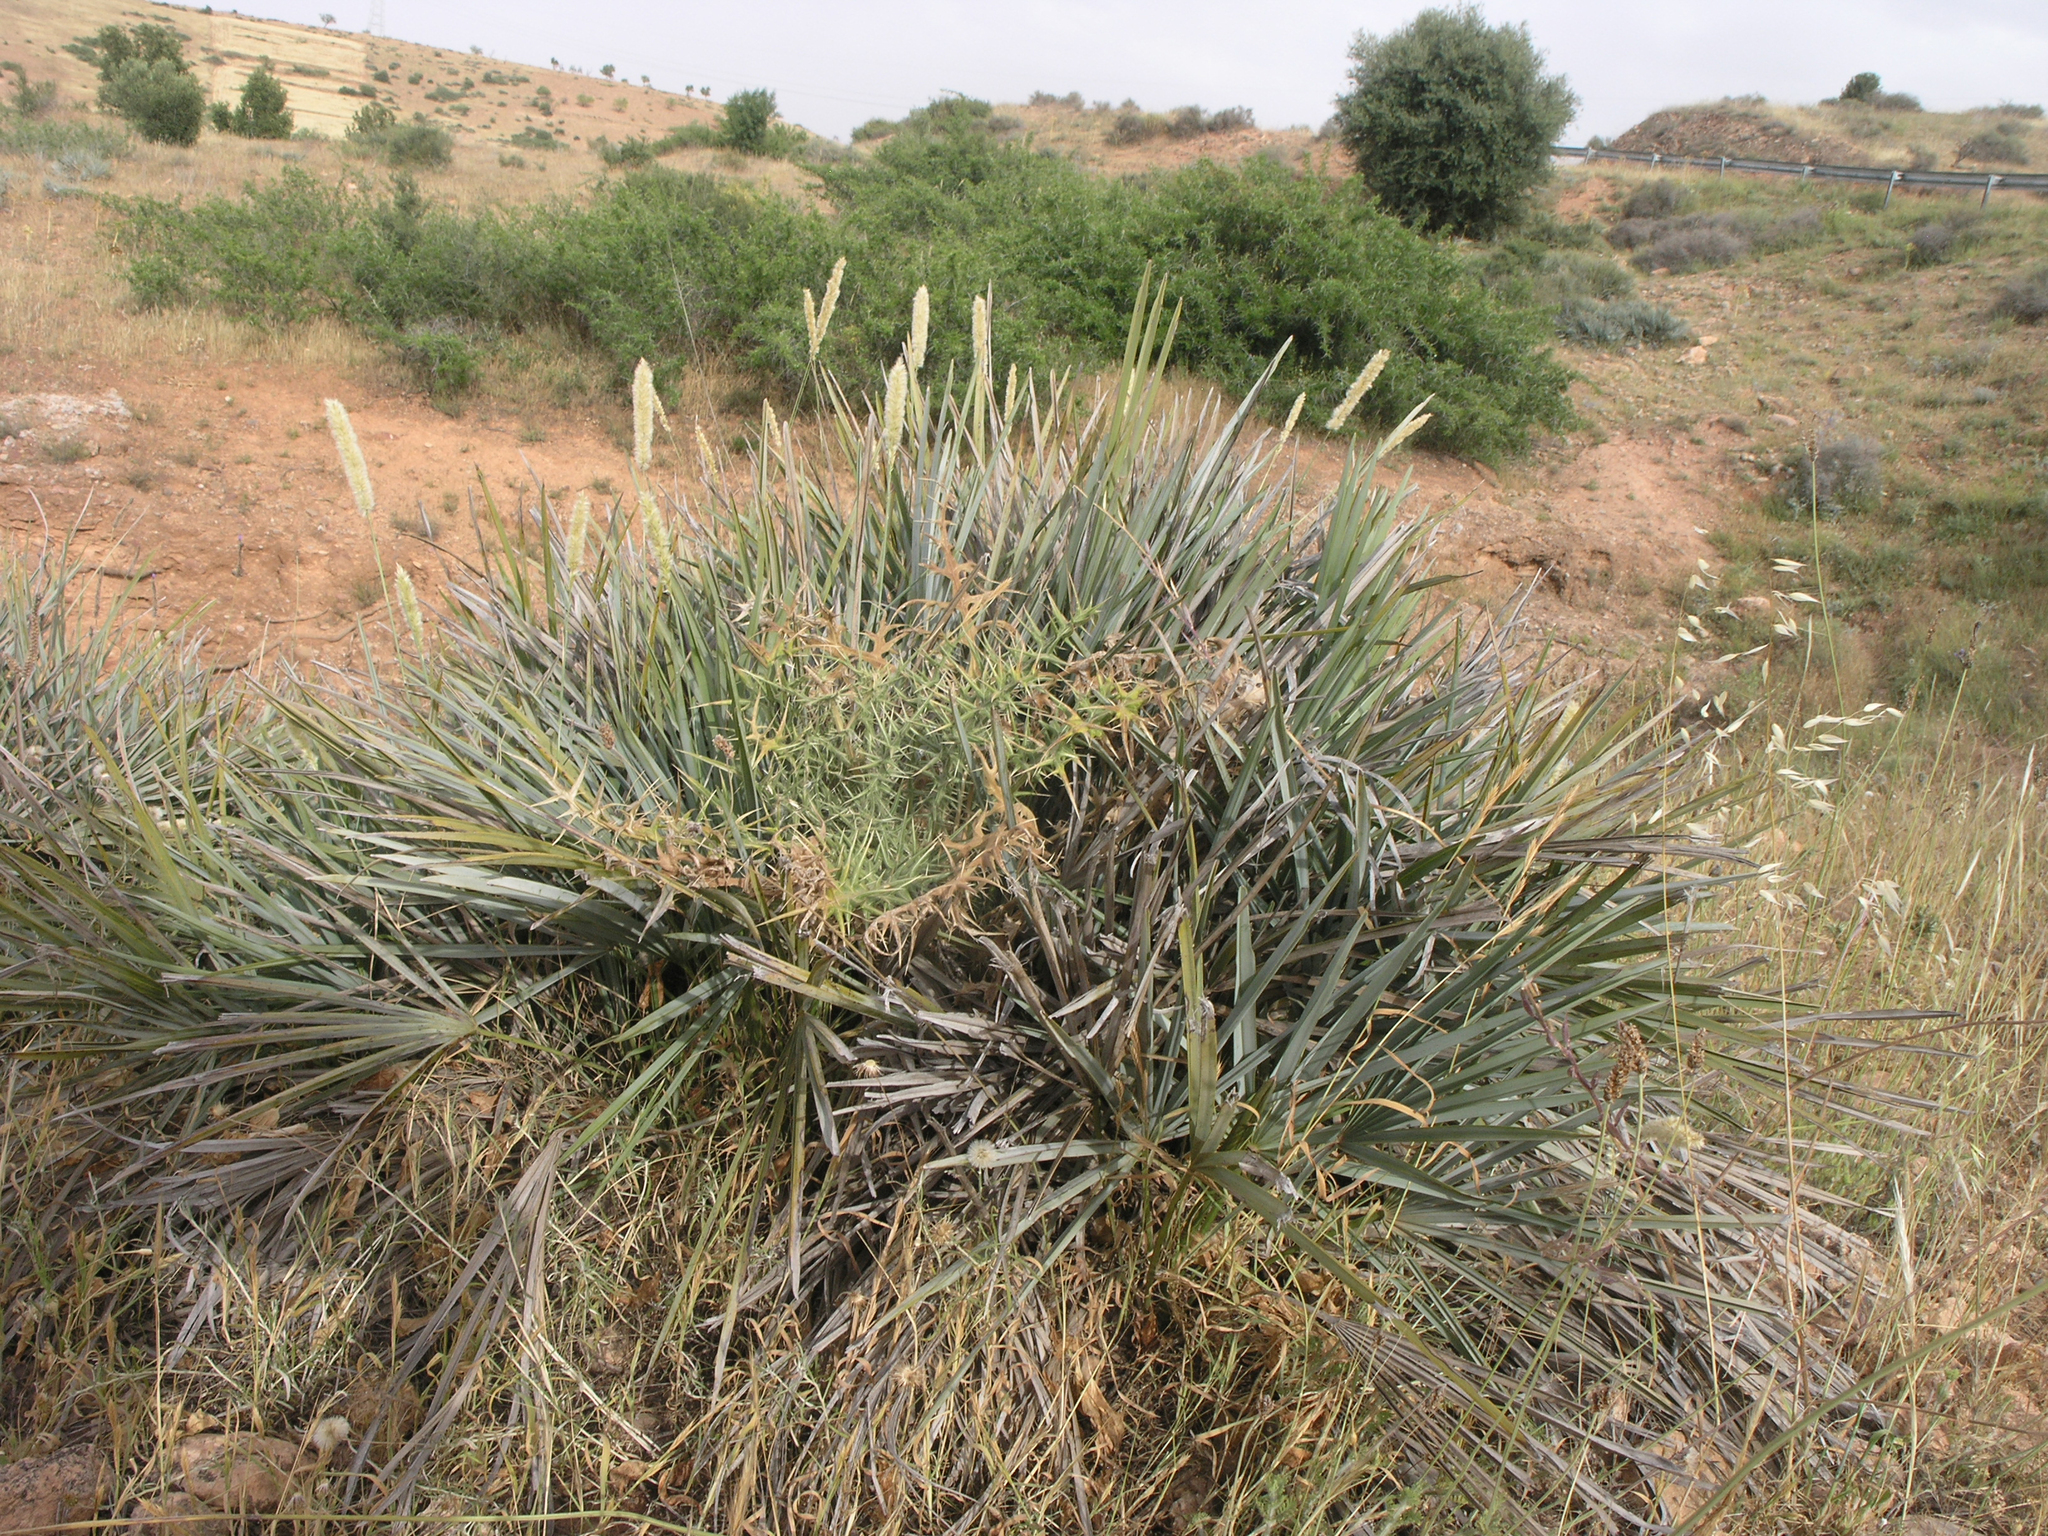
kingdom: Plantae
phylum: Tracheophyta
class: Liliopsida
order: Arecales
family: Arecaceae
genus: Chamaerops
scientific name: Chamaerops humilis
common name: Dwarf fan palm
